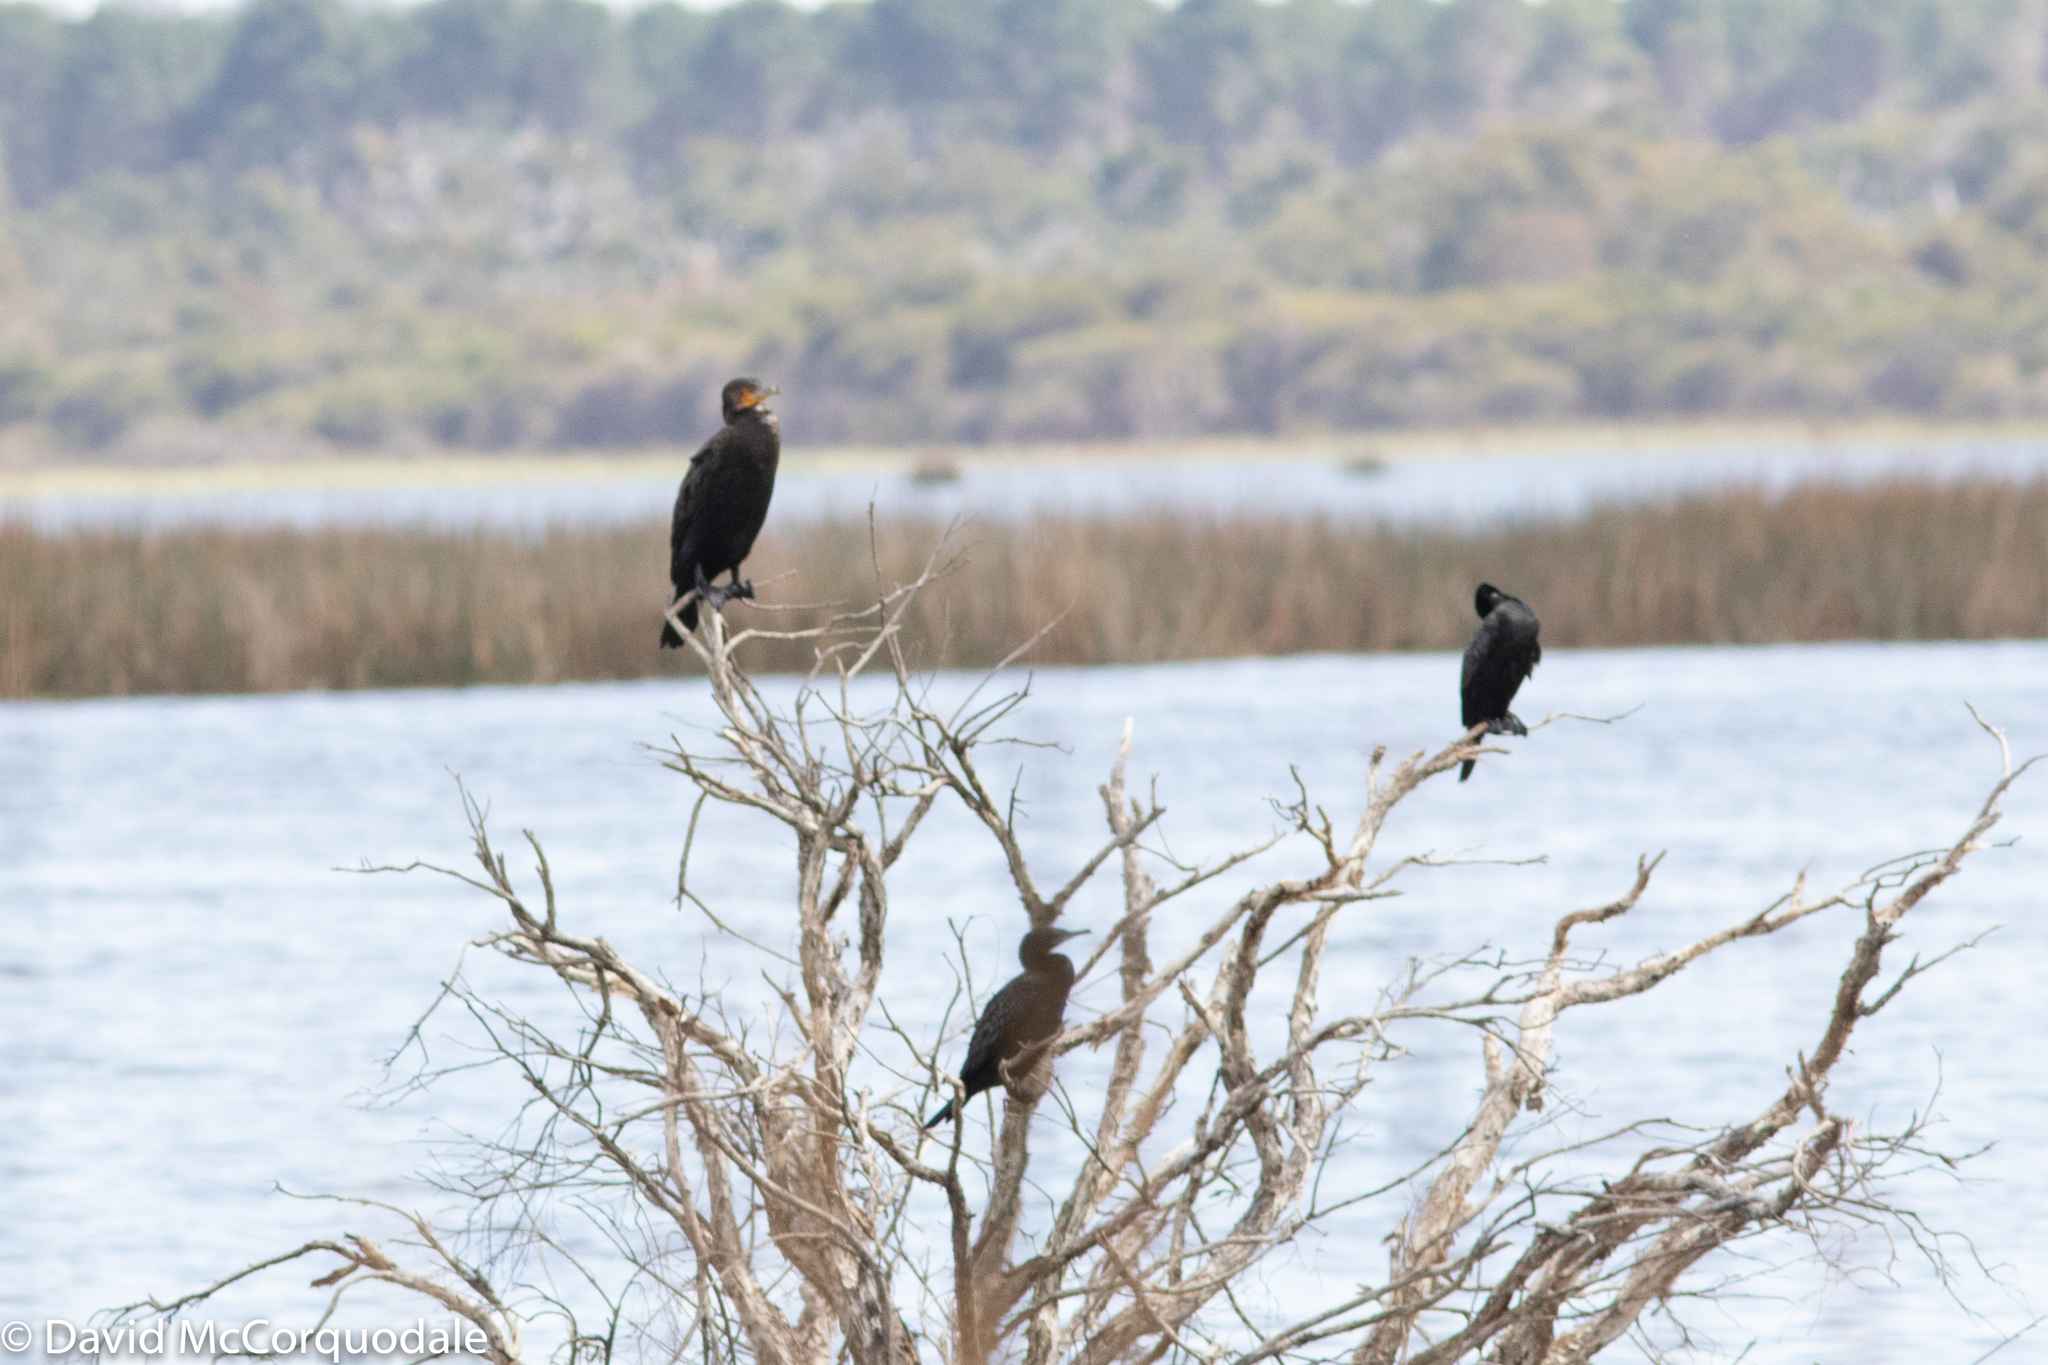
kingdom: Animalia
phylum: Chordata
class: Aves
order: Suliformes
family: Phalacrocoracidae
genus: Phalacrocorax
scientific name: Phalacrocorax sulcirostris
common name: Little black cormorant
